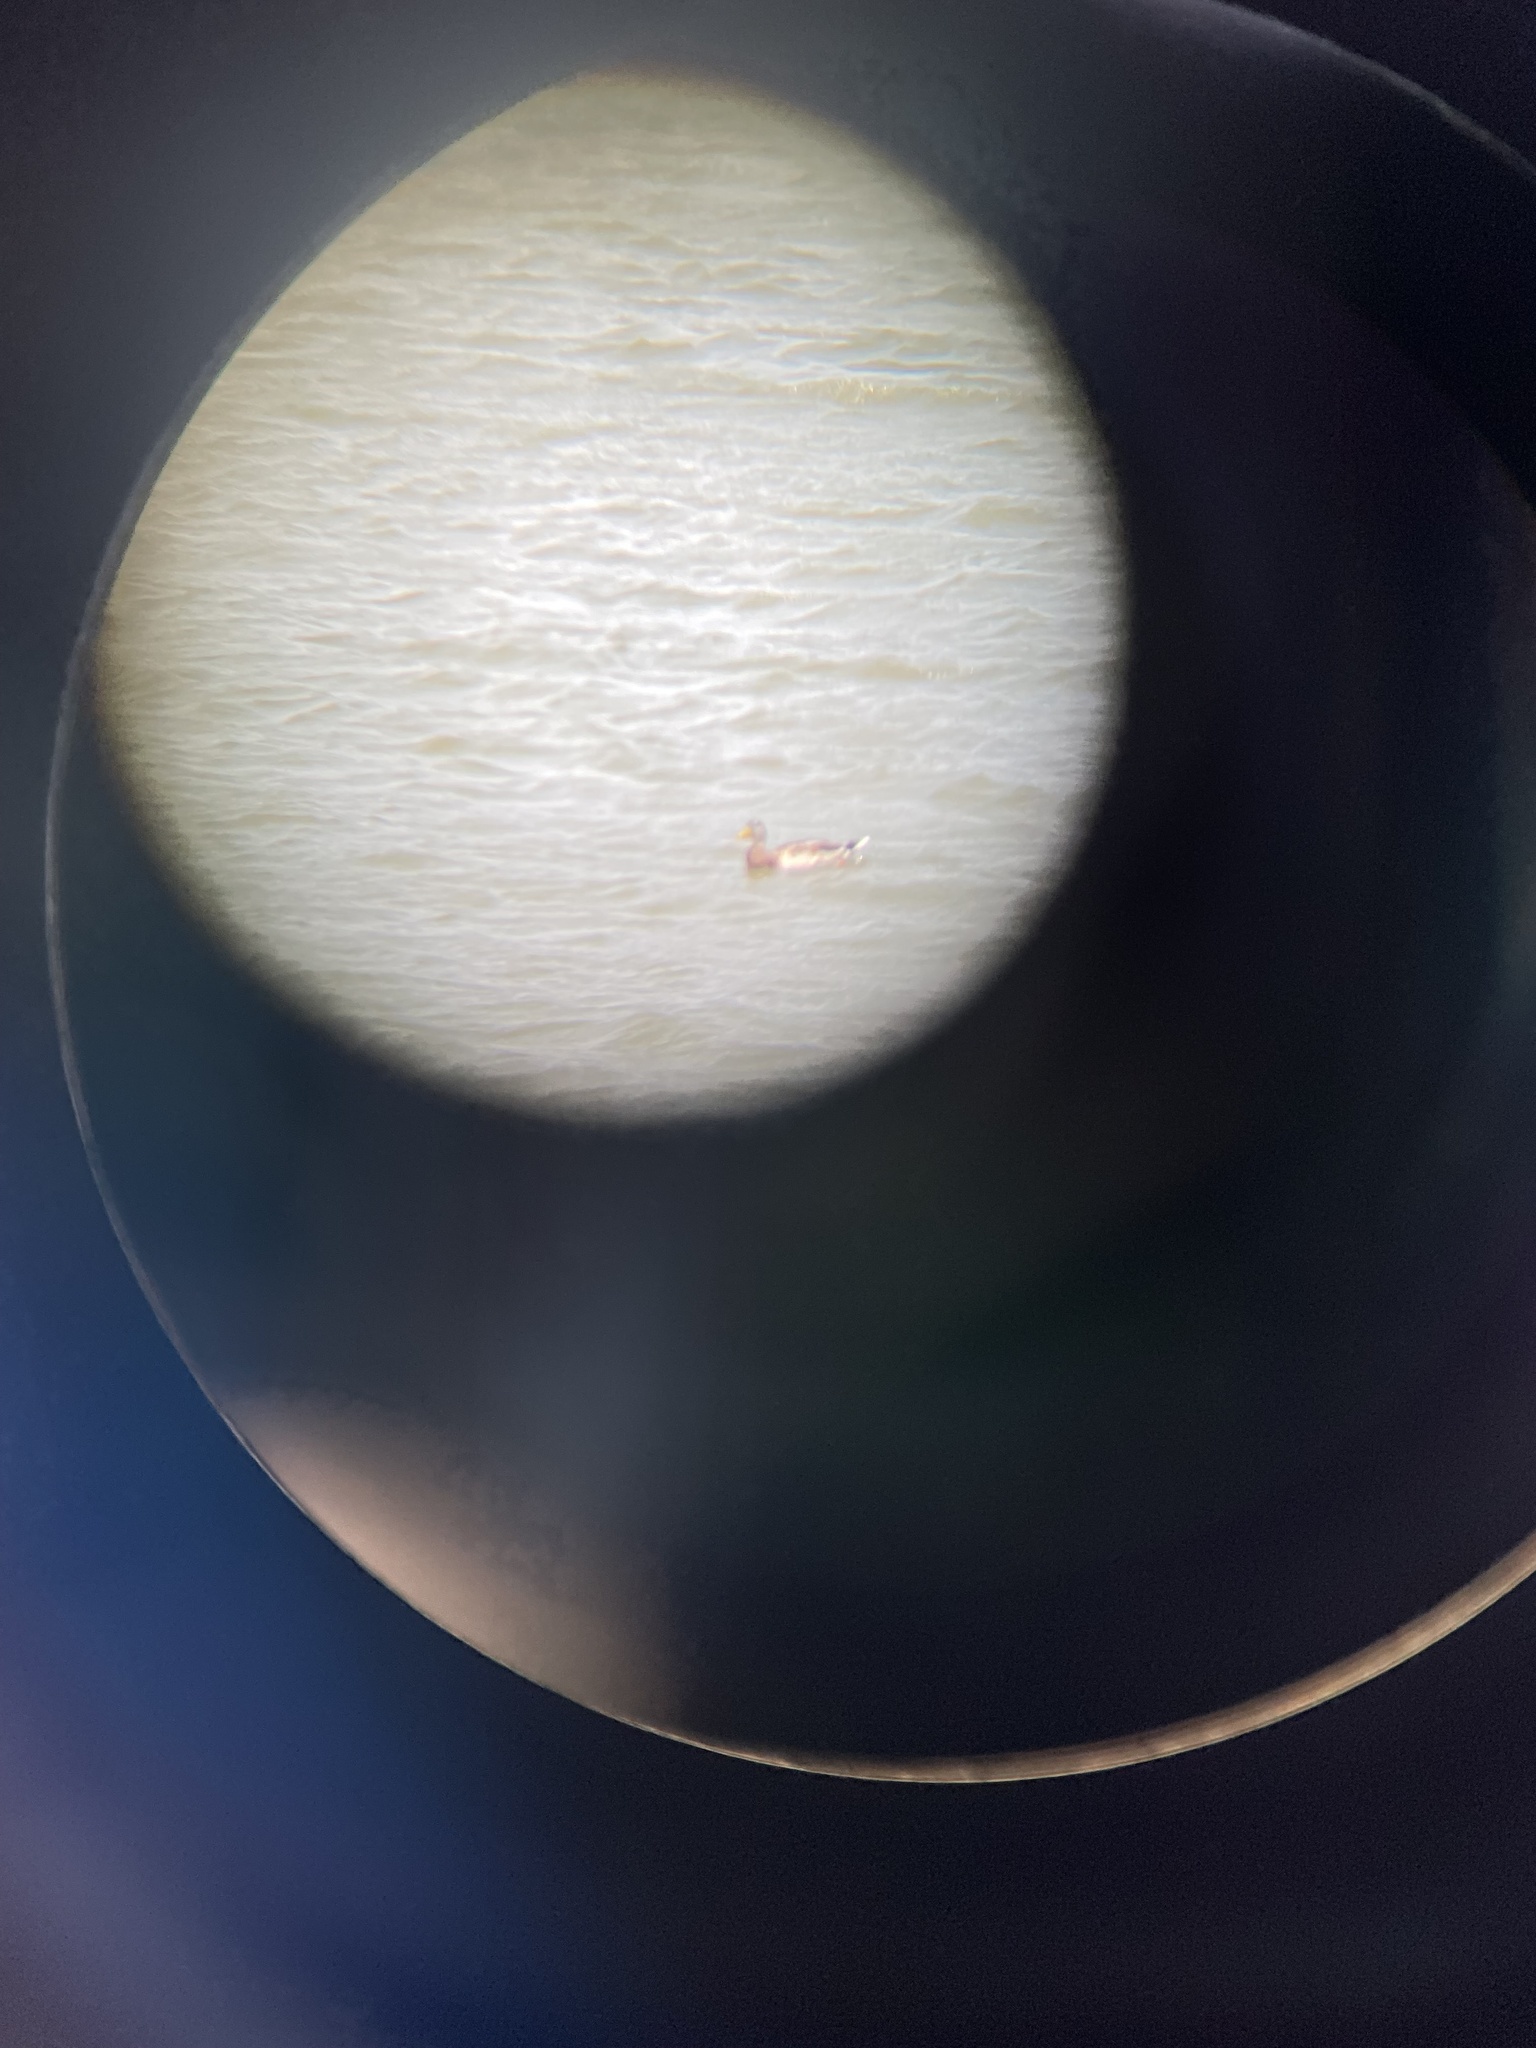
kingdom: Animalia
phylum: Chordata
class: Aves
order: Anseriformes
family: Anatidae
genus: Anas
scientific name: Anas platyrhynchos
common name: Mallard
